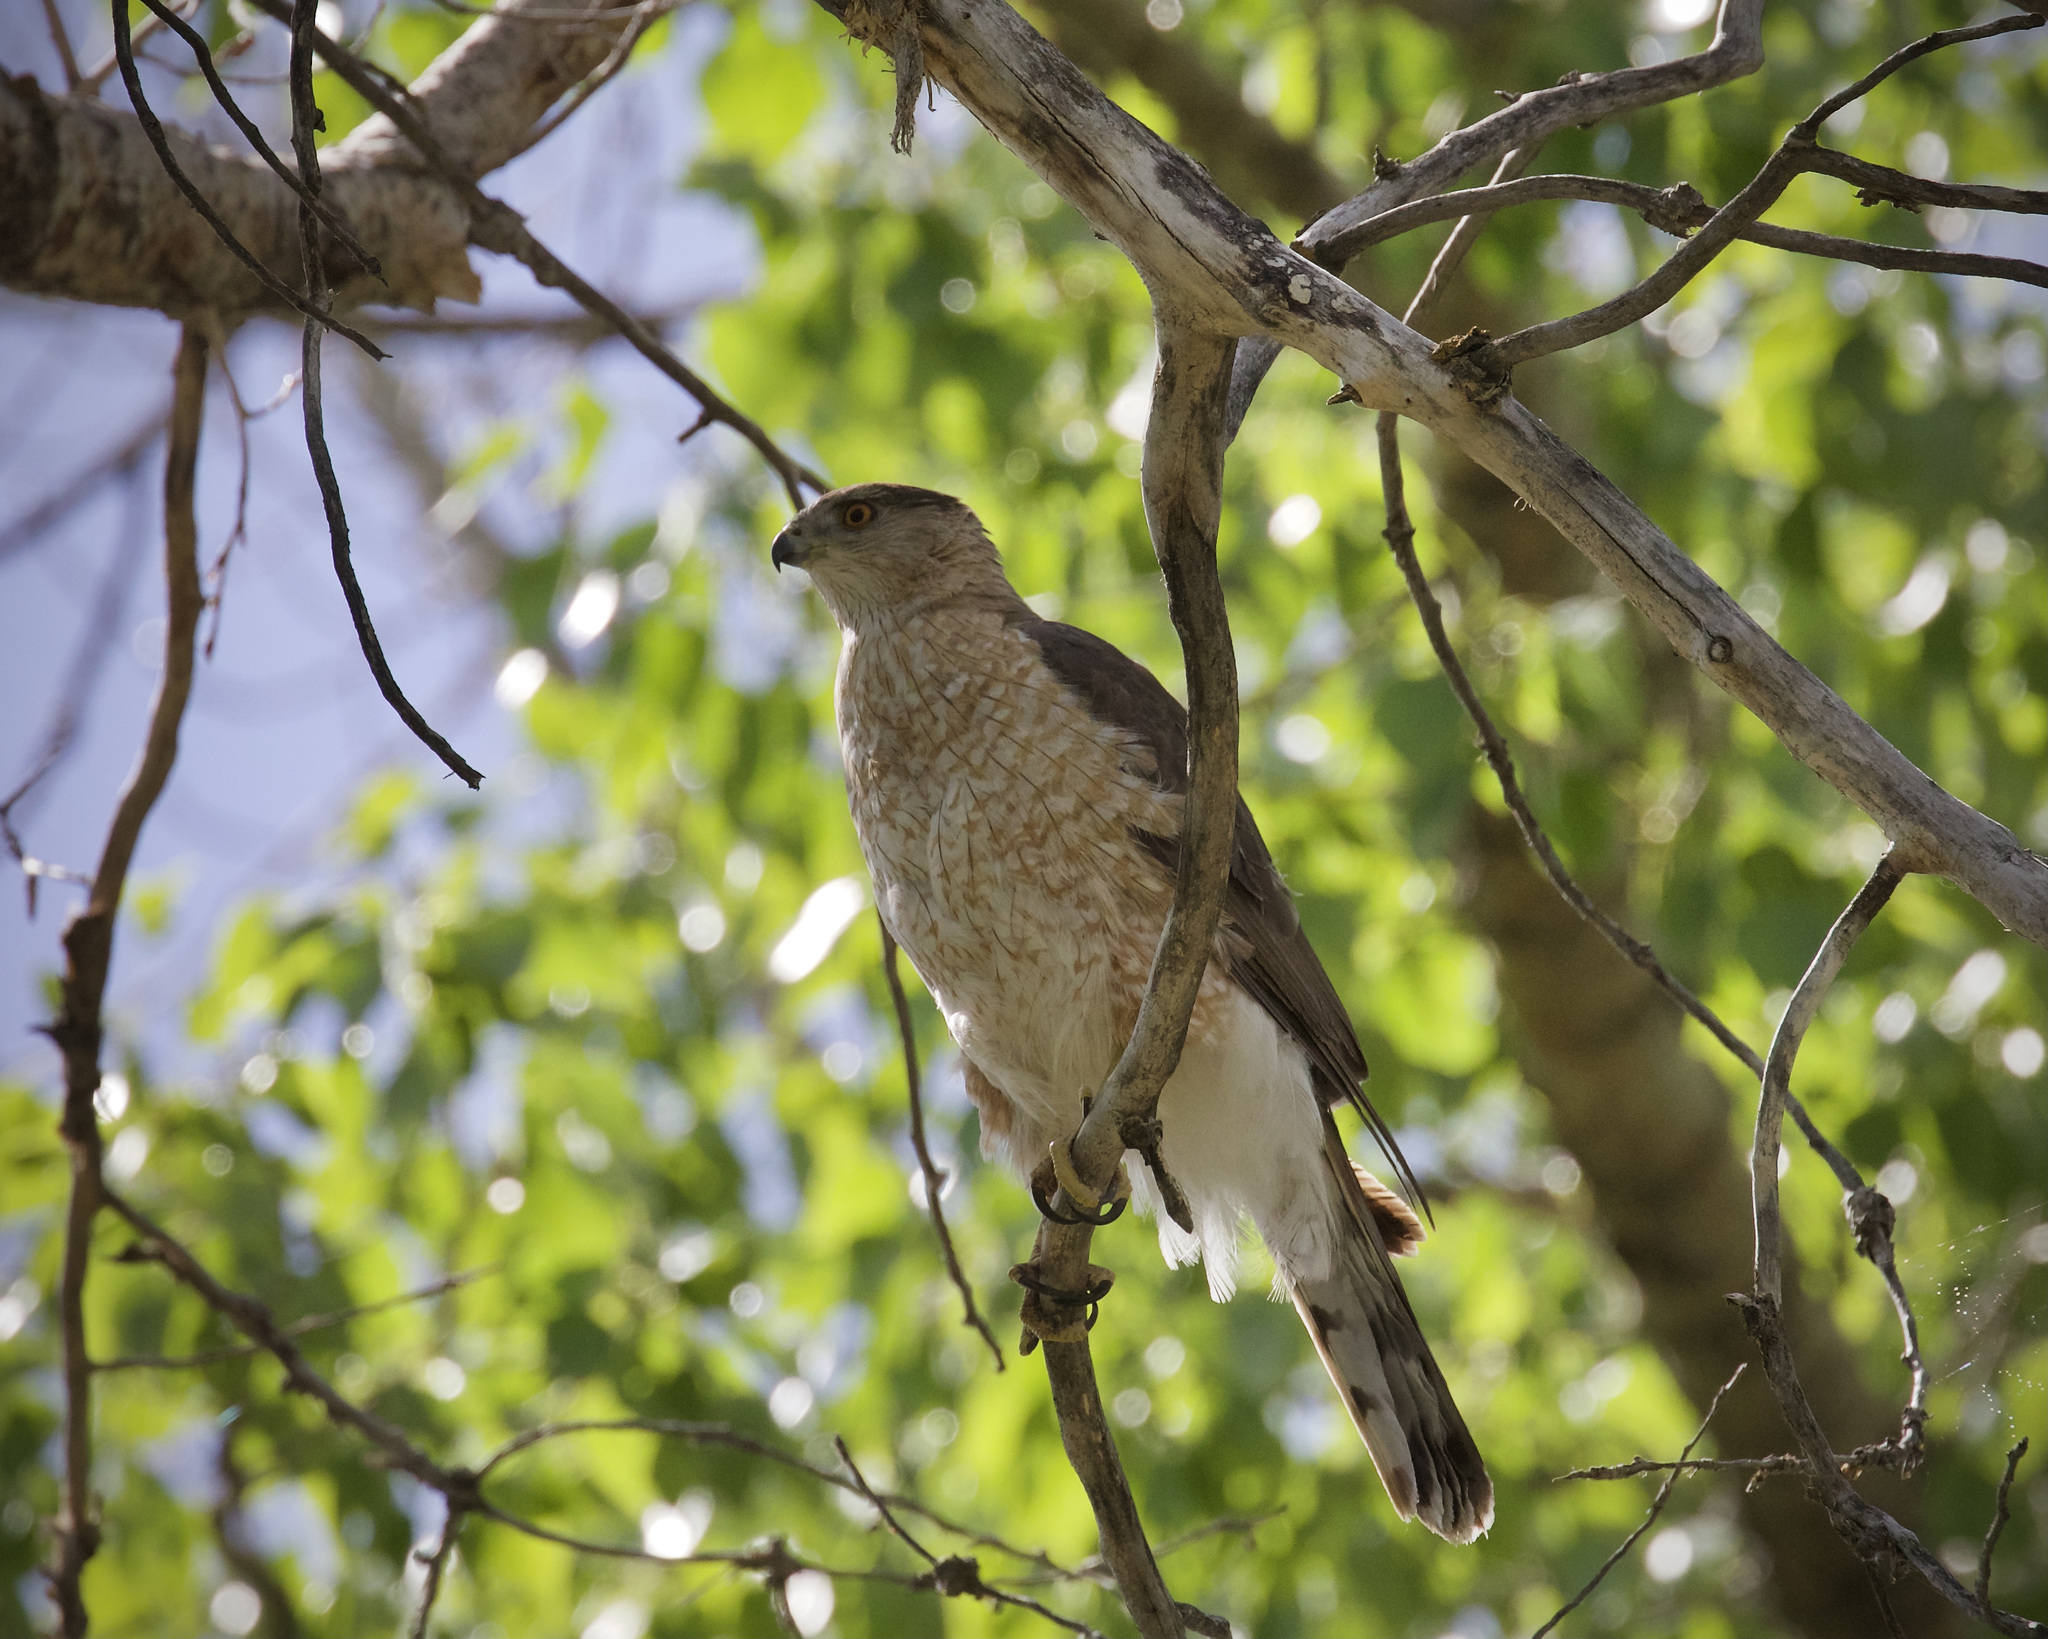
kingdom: Animalia
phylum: Chordata
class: Aves
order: Accipitriformes
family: Accipitridae
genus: Accipiter
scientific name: Accipiter cooperii
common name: Cooper's hawk
